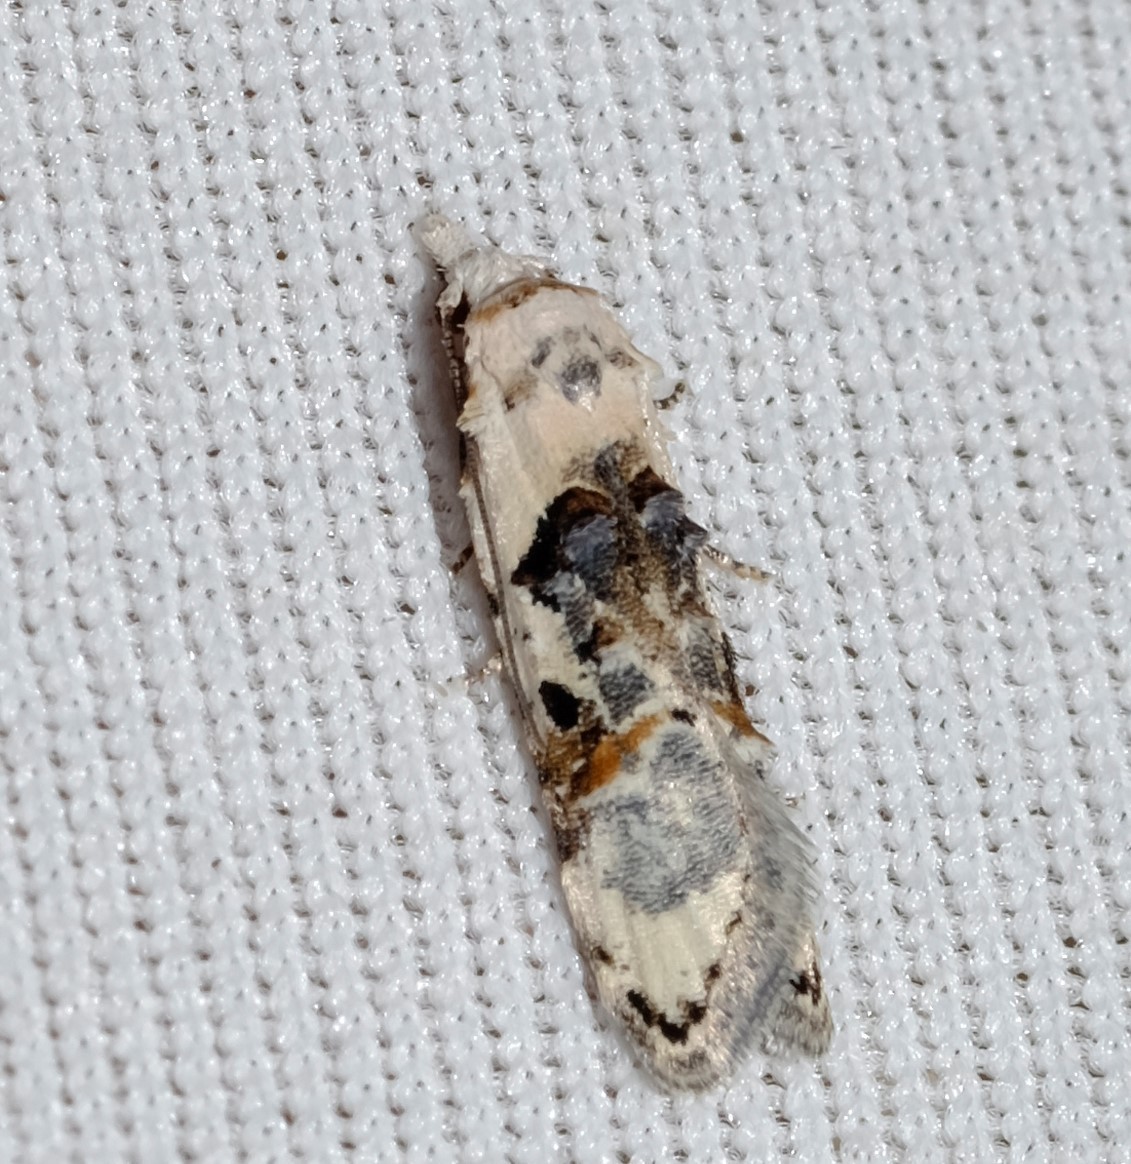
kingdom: Animalia
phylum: Arthropoda
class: Insecta
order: Lepidoptera
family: Carposinidae
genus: Sosineura
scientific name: Sosineura mimica
